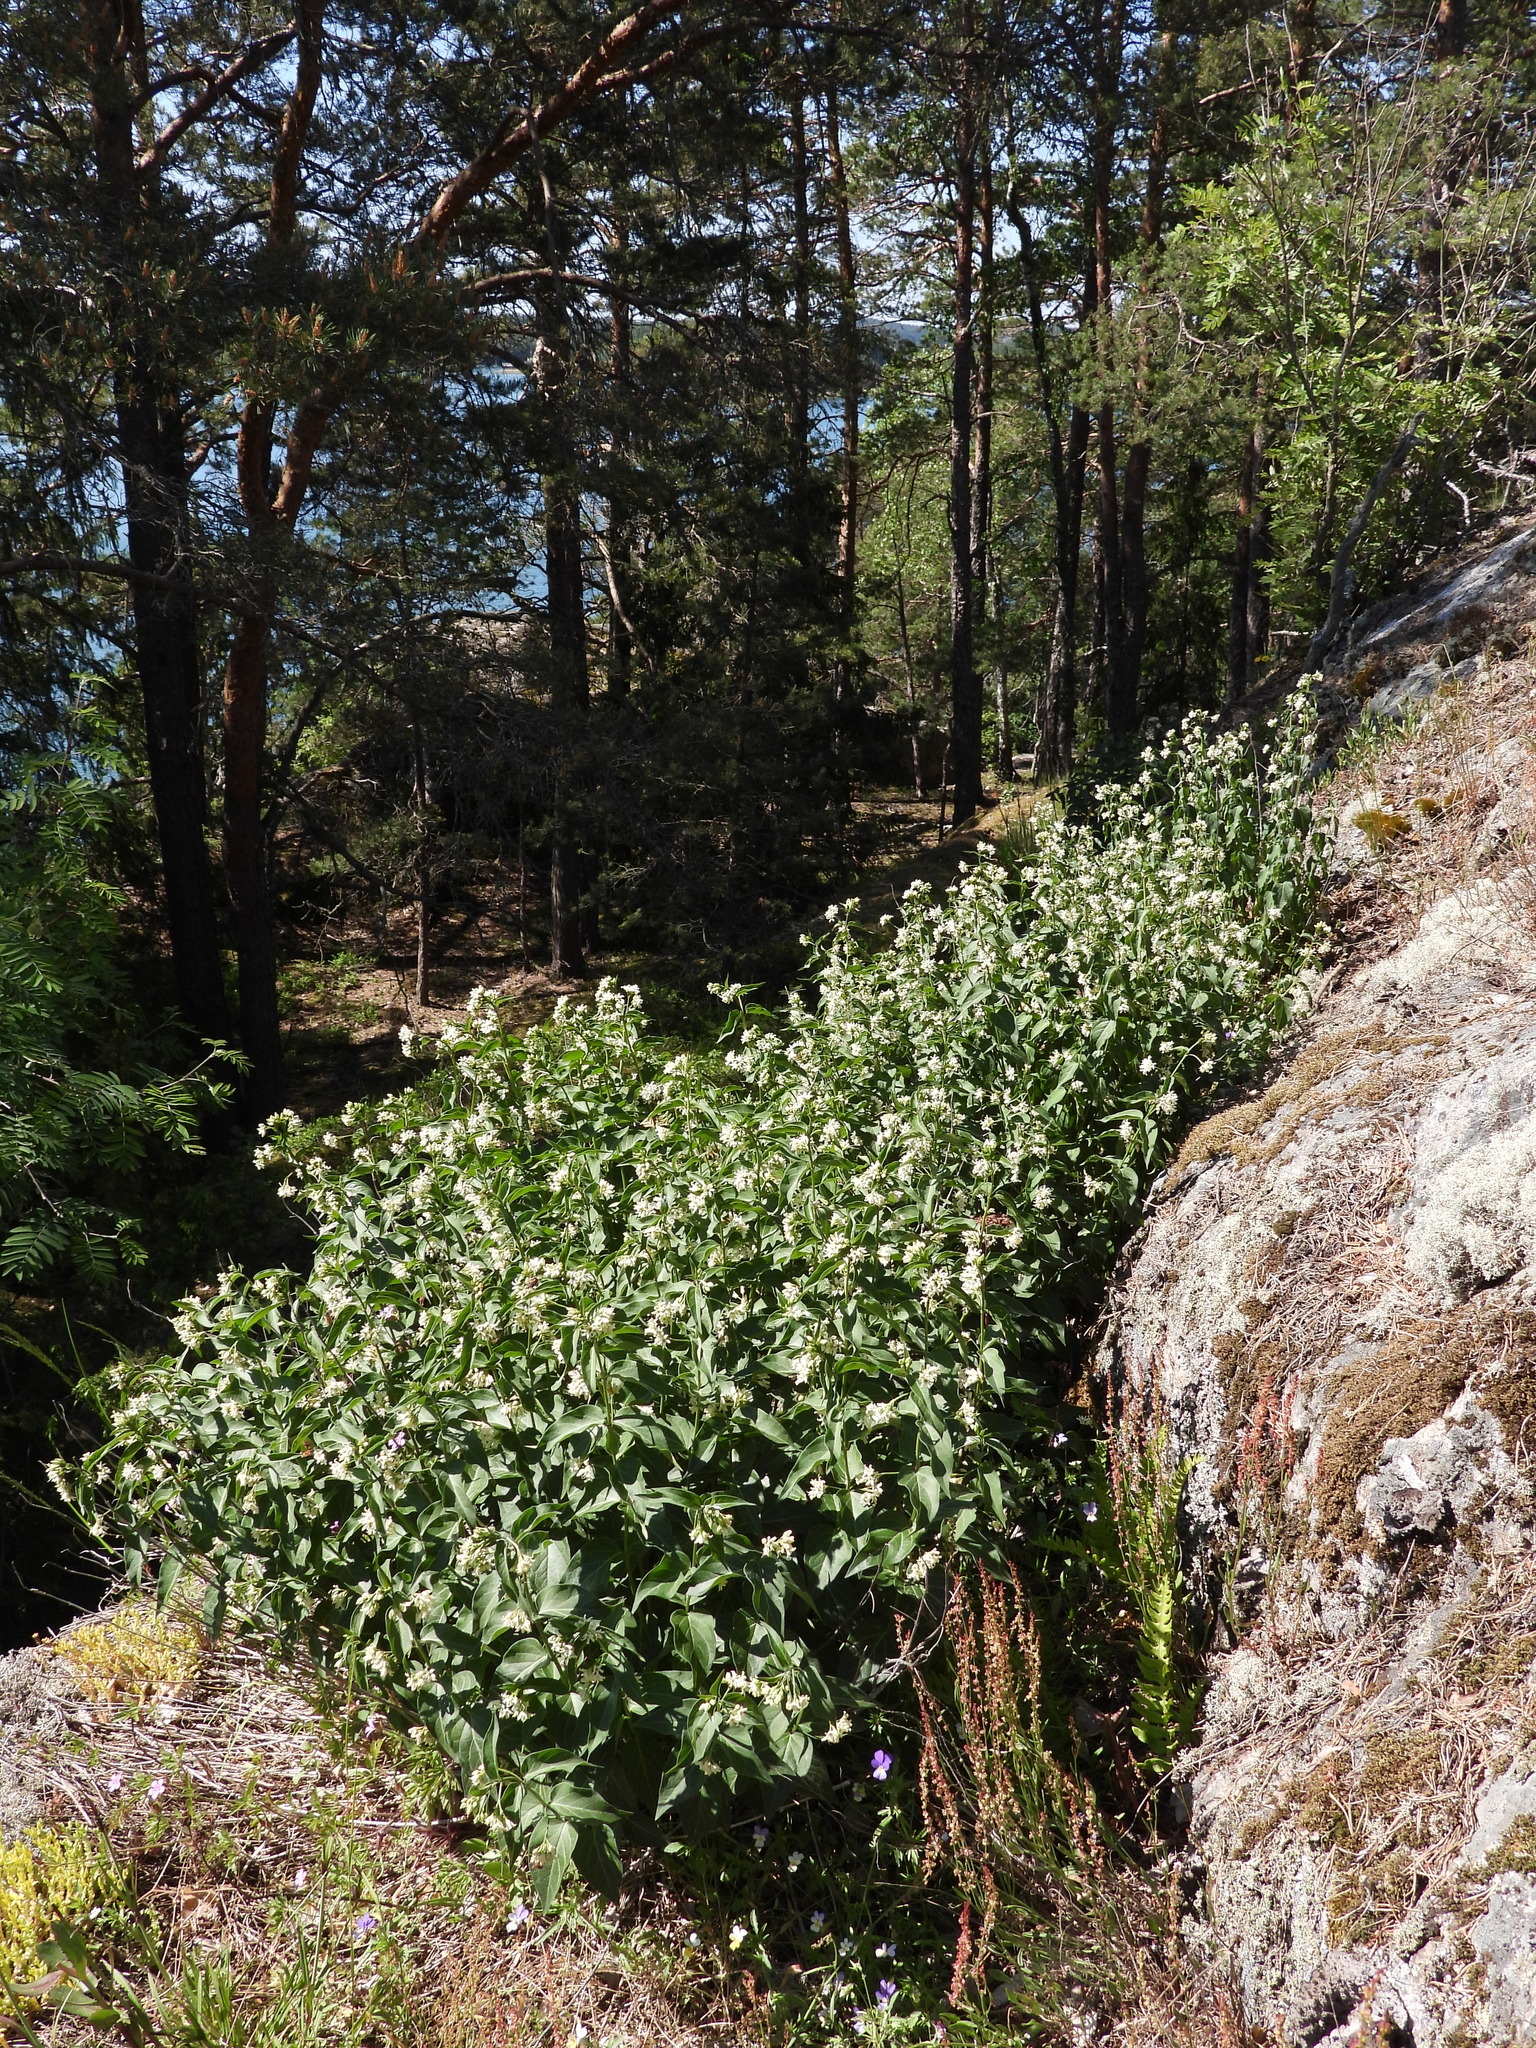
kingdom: Plantae
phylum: Tracheophyta
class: Magnoliopsida
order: Gentianales
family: Apocynaceae
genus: Vincetoxicum
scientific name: Vincetoxicum hirundinaria
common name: White swallowwort
